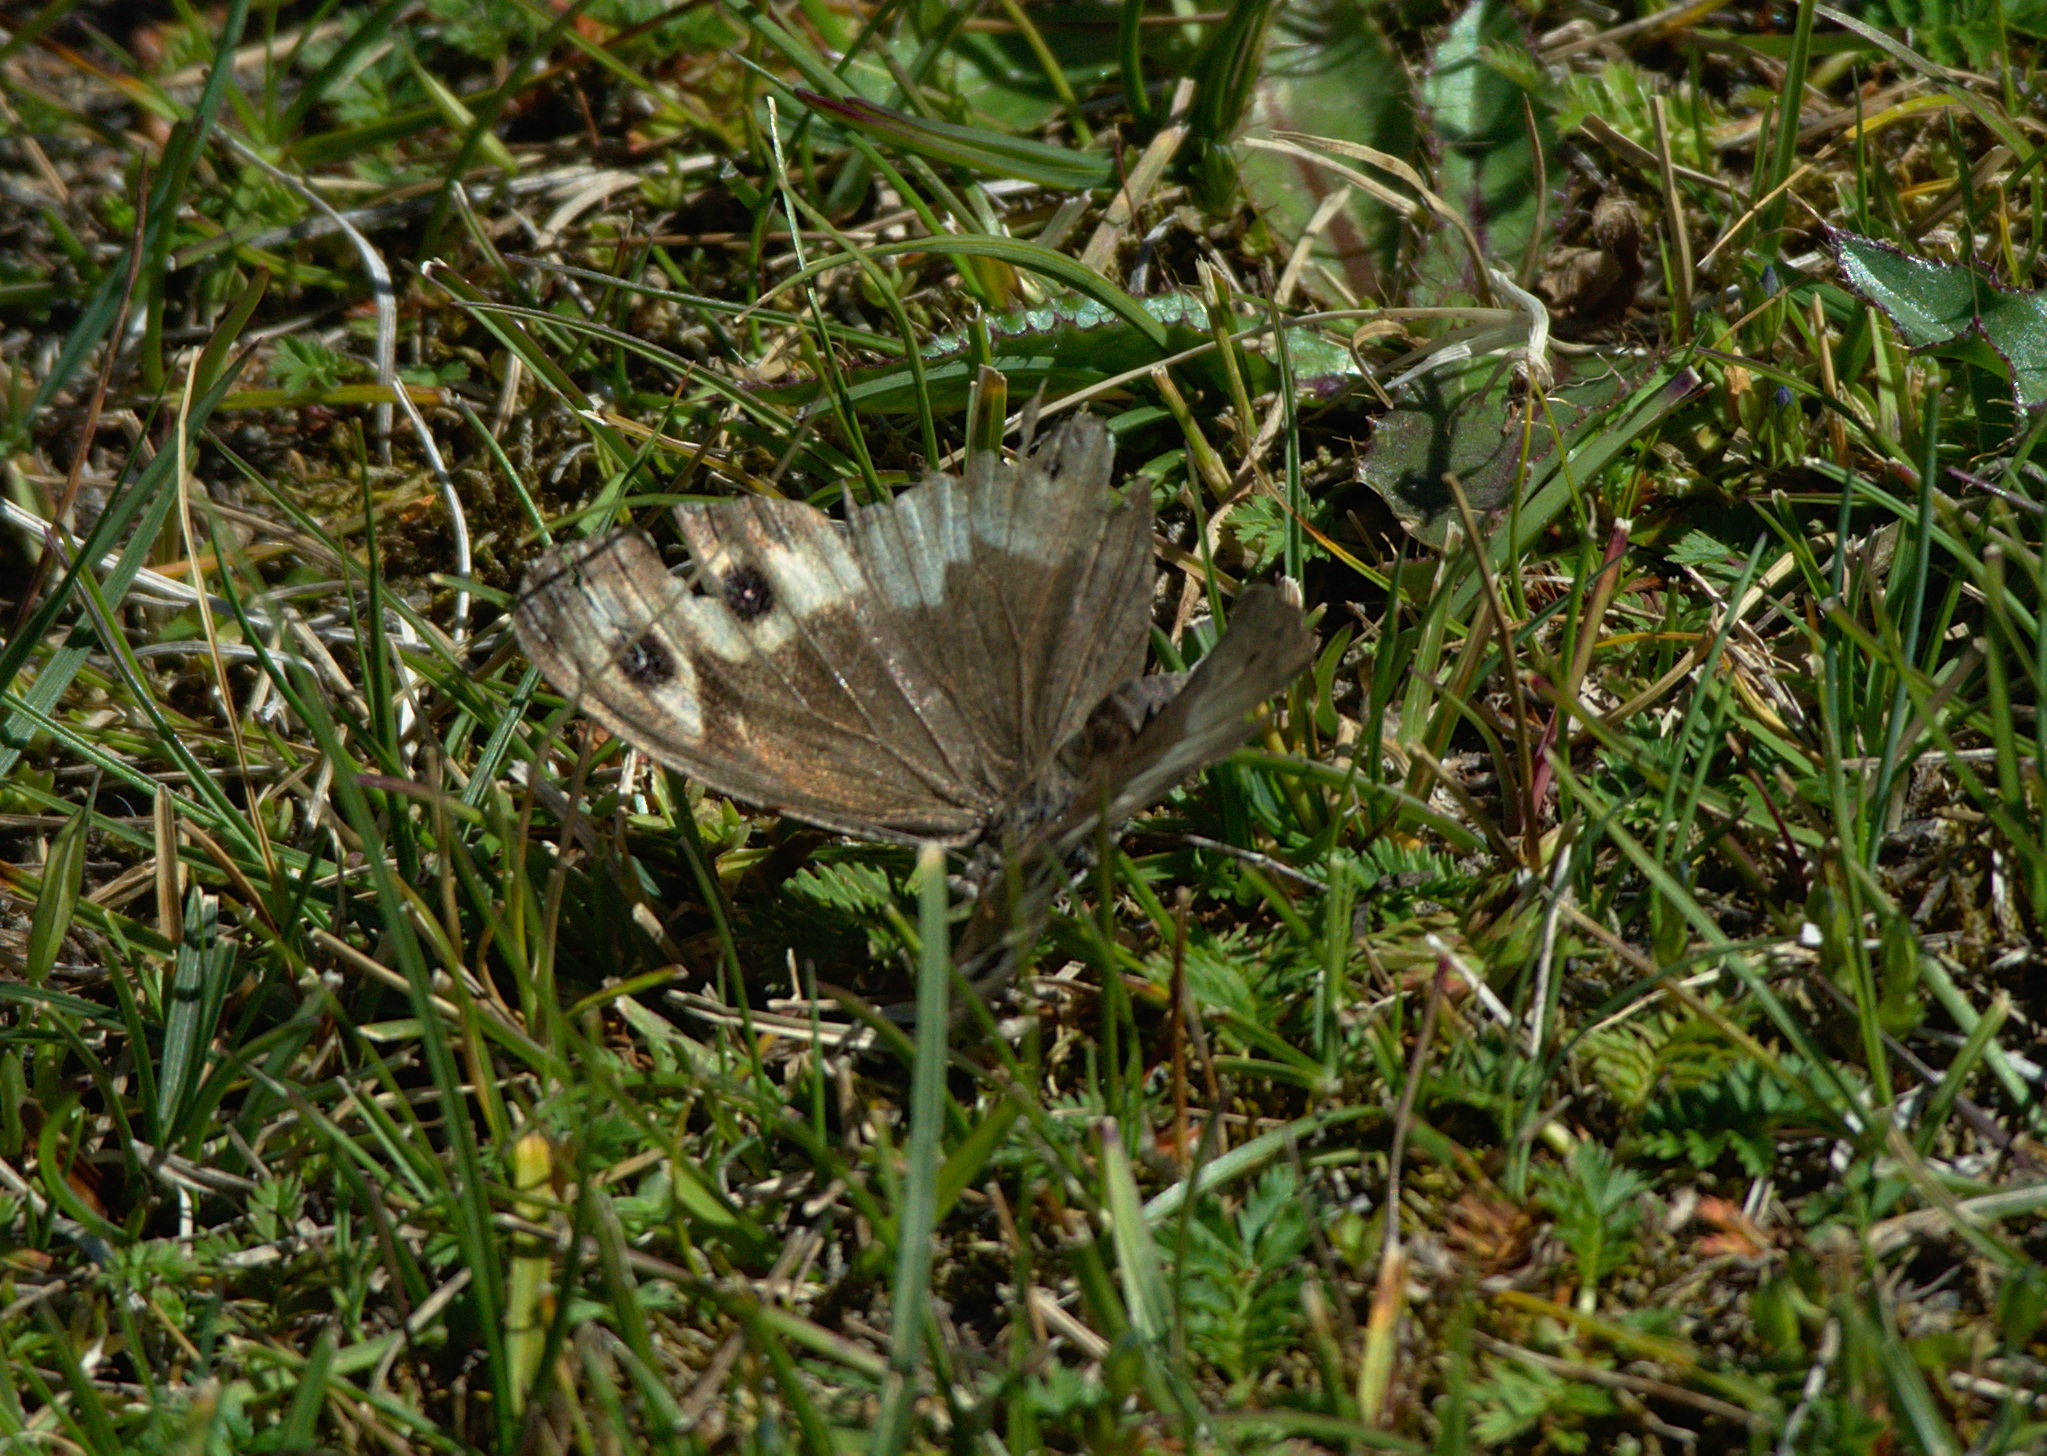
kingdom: Animalia
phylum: Arthropoda
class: Insecta
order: Lepidoptera
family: Nymphalidae
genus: Hipparchia
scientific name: Hipparchia autonoe
